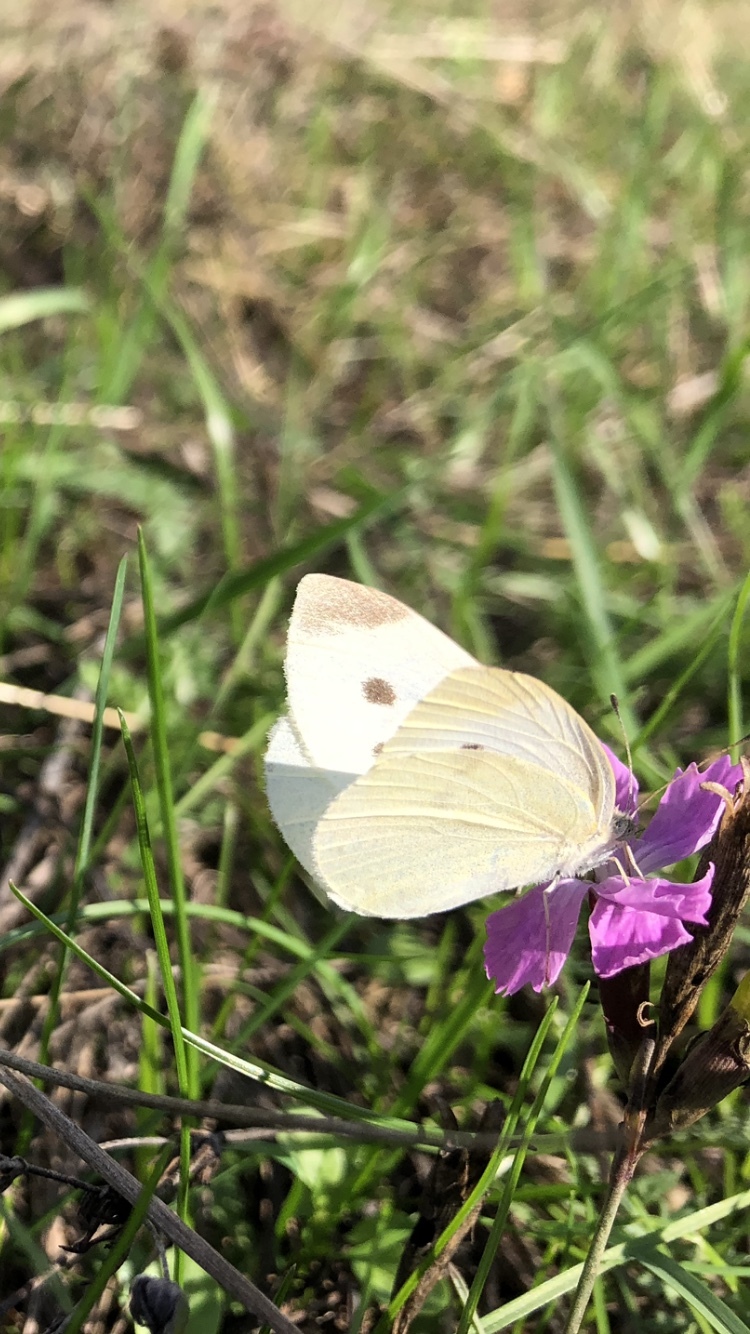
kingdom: Animalia
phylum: Arthropoda
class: Insecta
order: Lepidoptera
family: Pieridae
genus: Pieris
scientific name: Pieris rapae
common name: Small white
